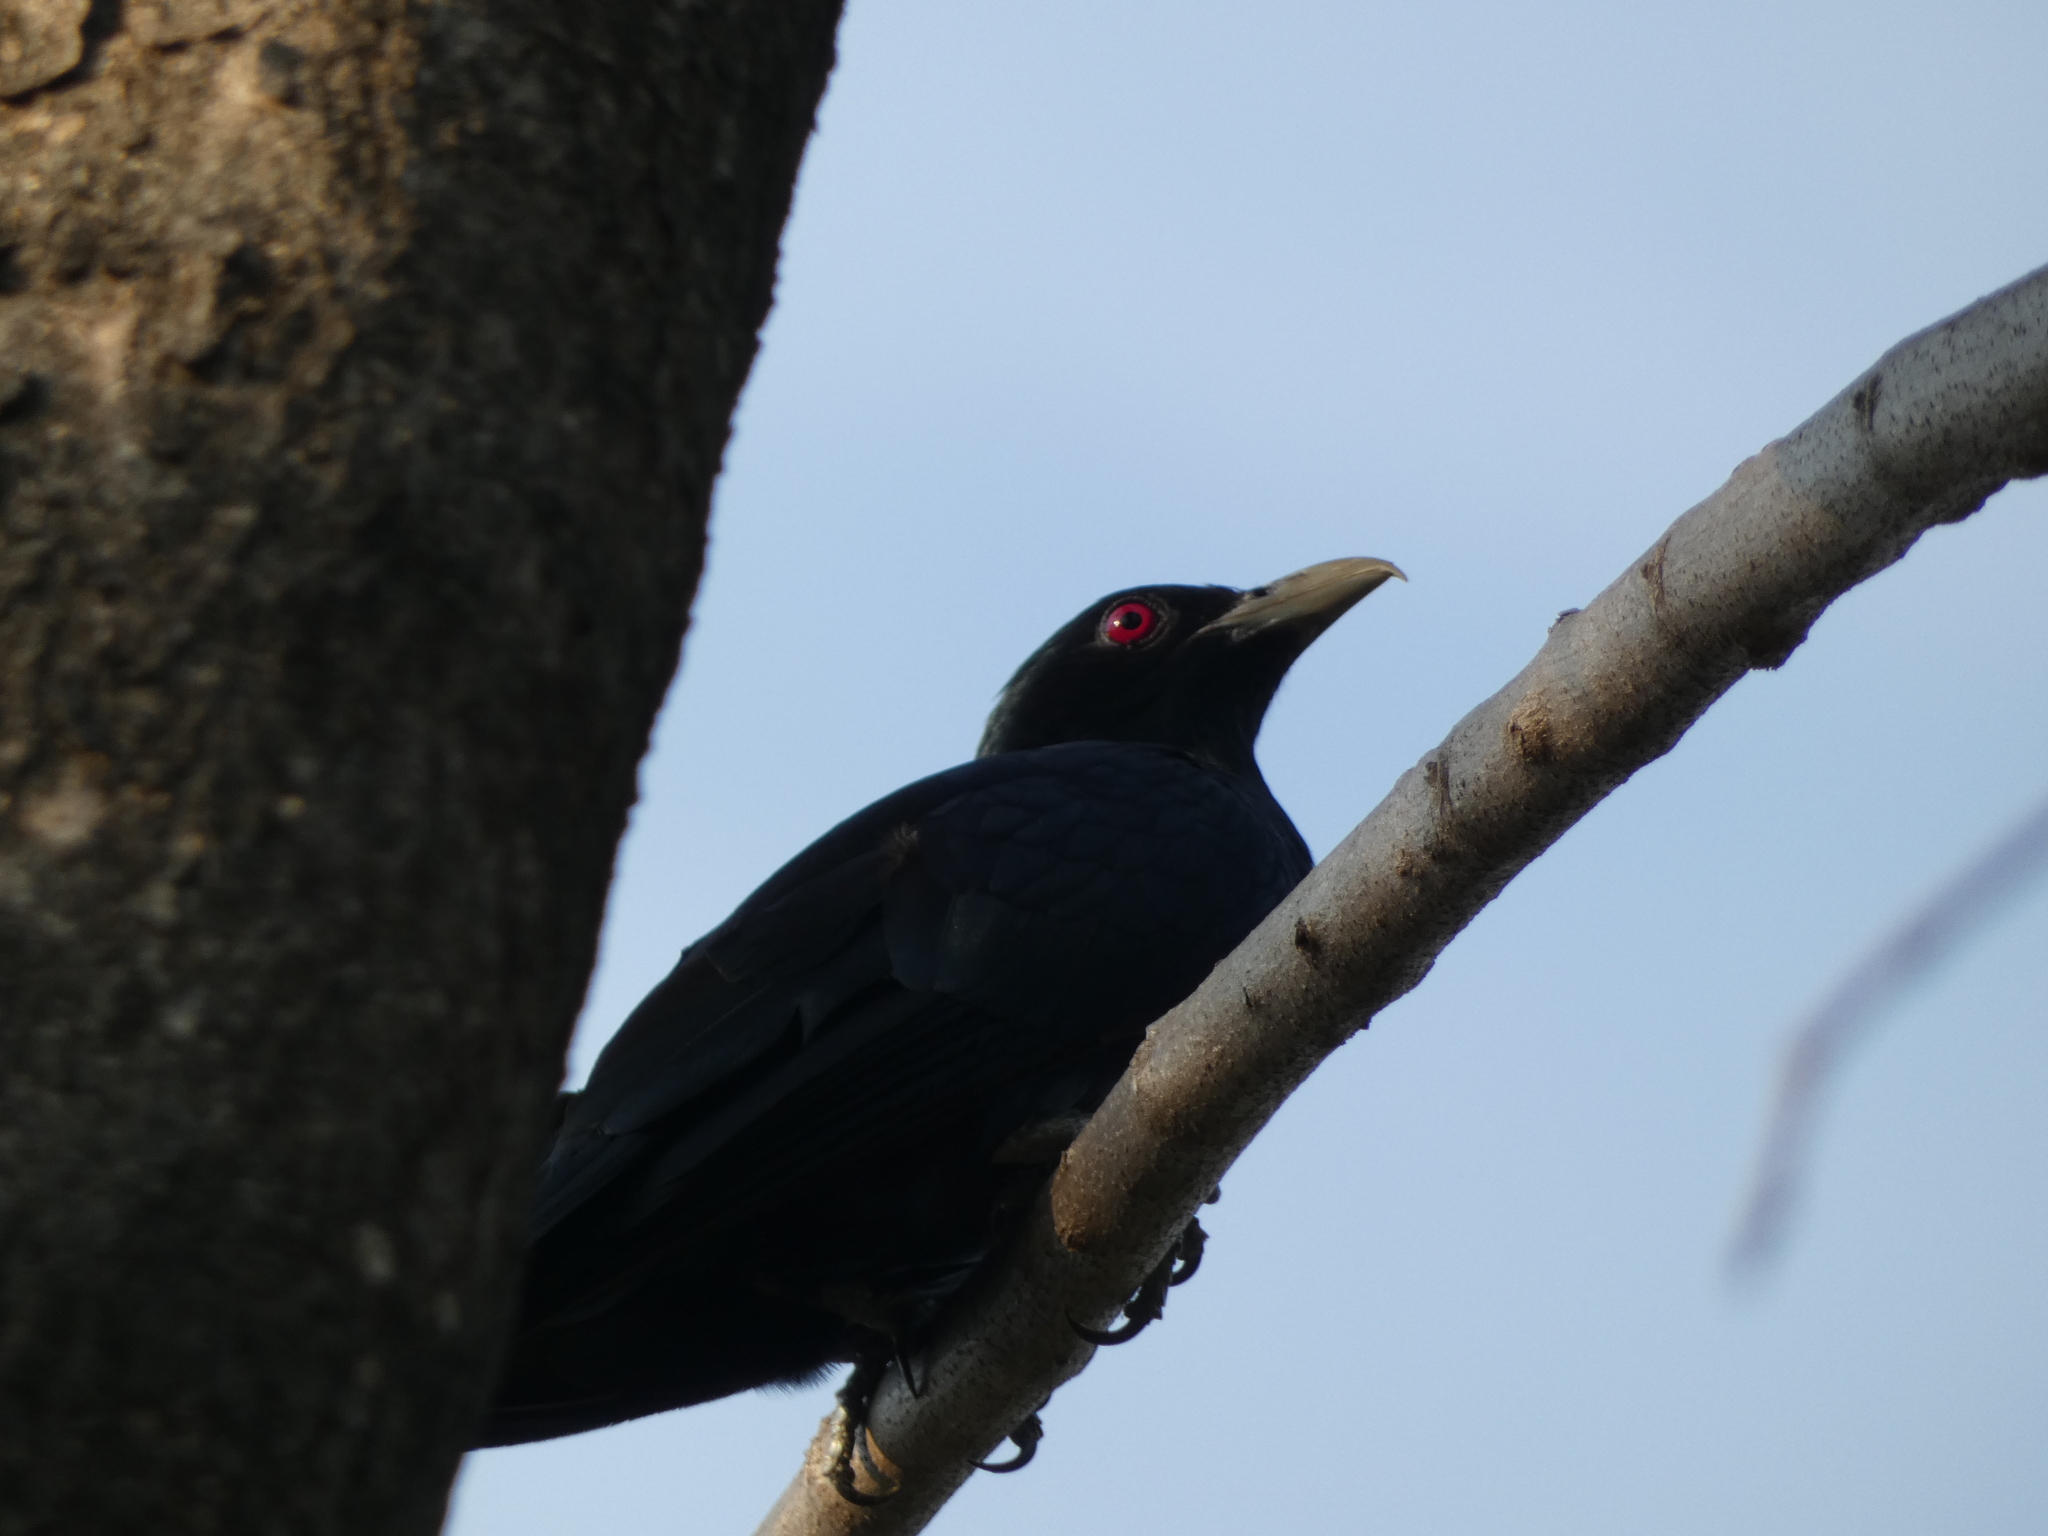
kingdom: Animalia
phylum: Chordata
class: Aves
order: Cuculiformes
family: Cuculidae
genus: Eudynamys
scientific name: Eudynamys scolopaceus
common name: Asian koel
